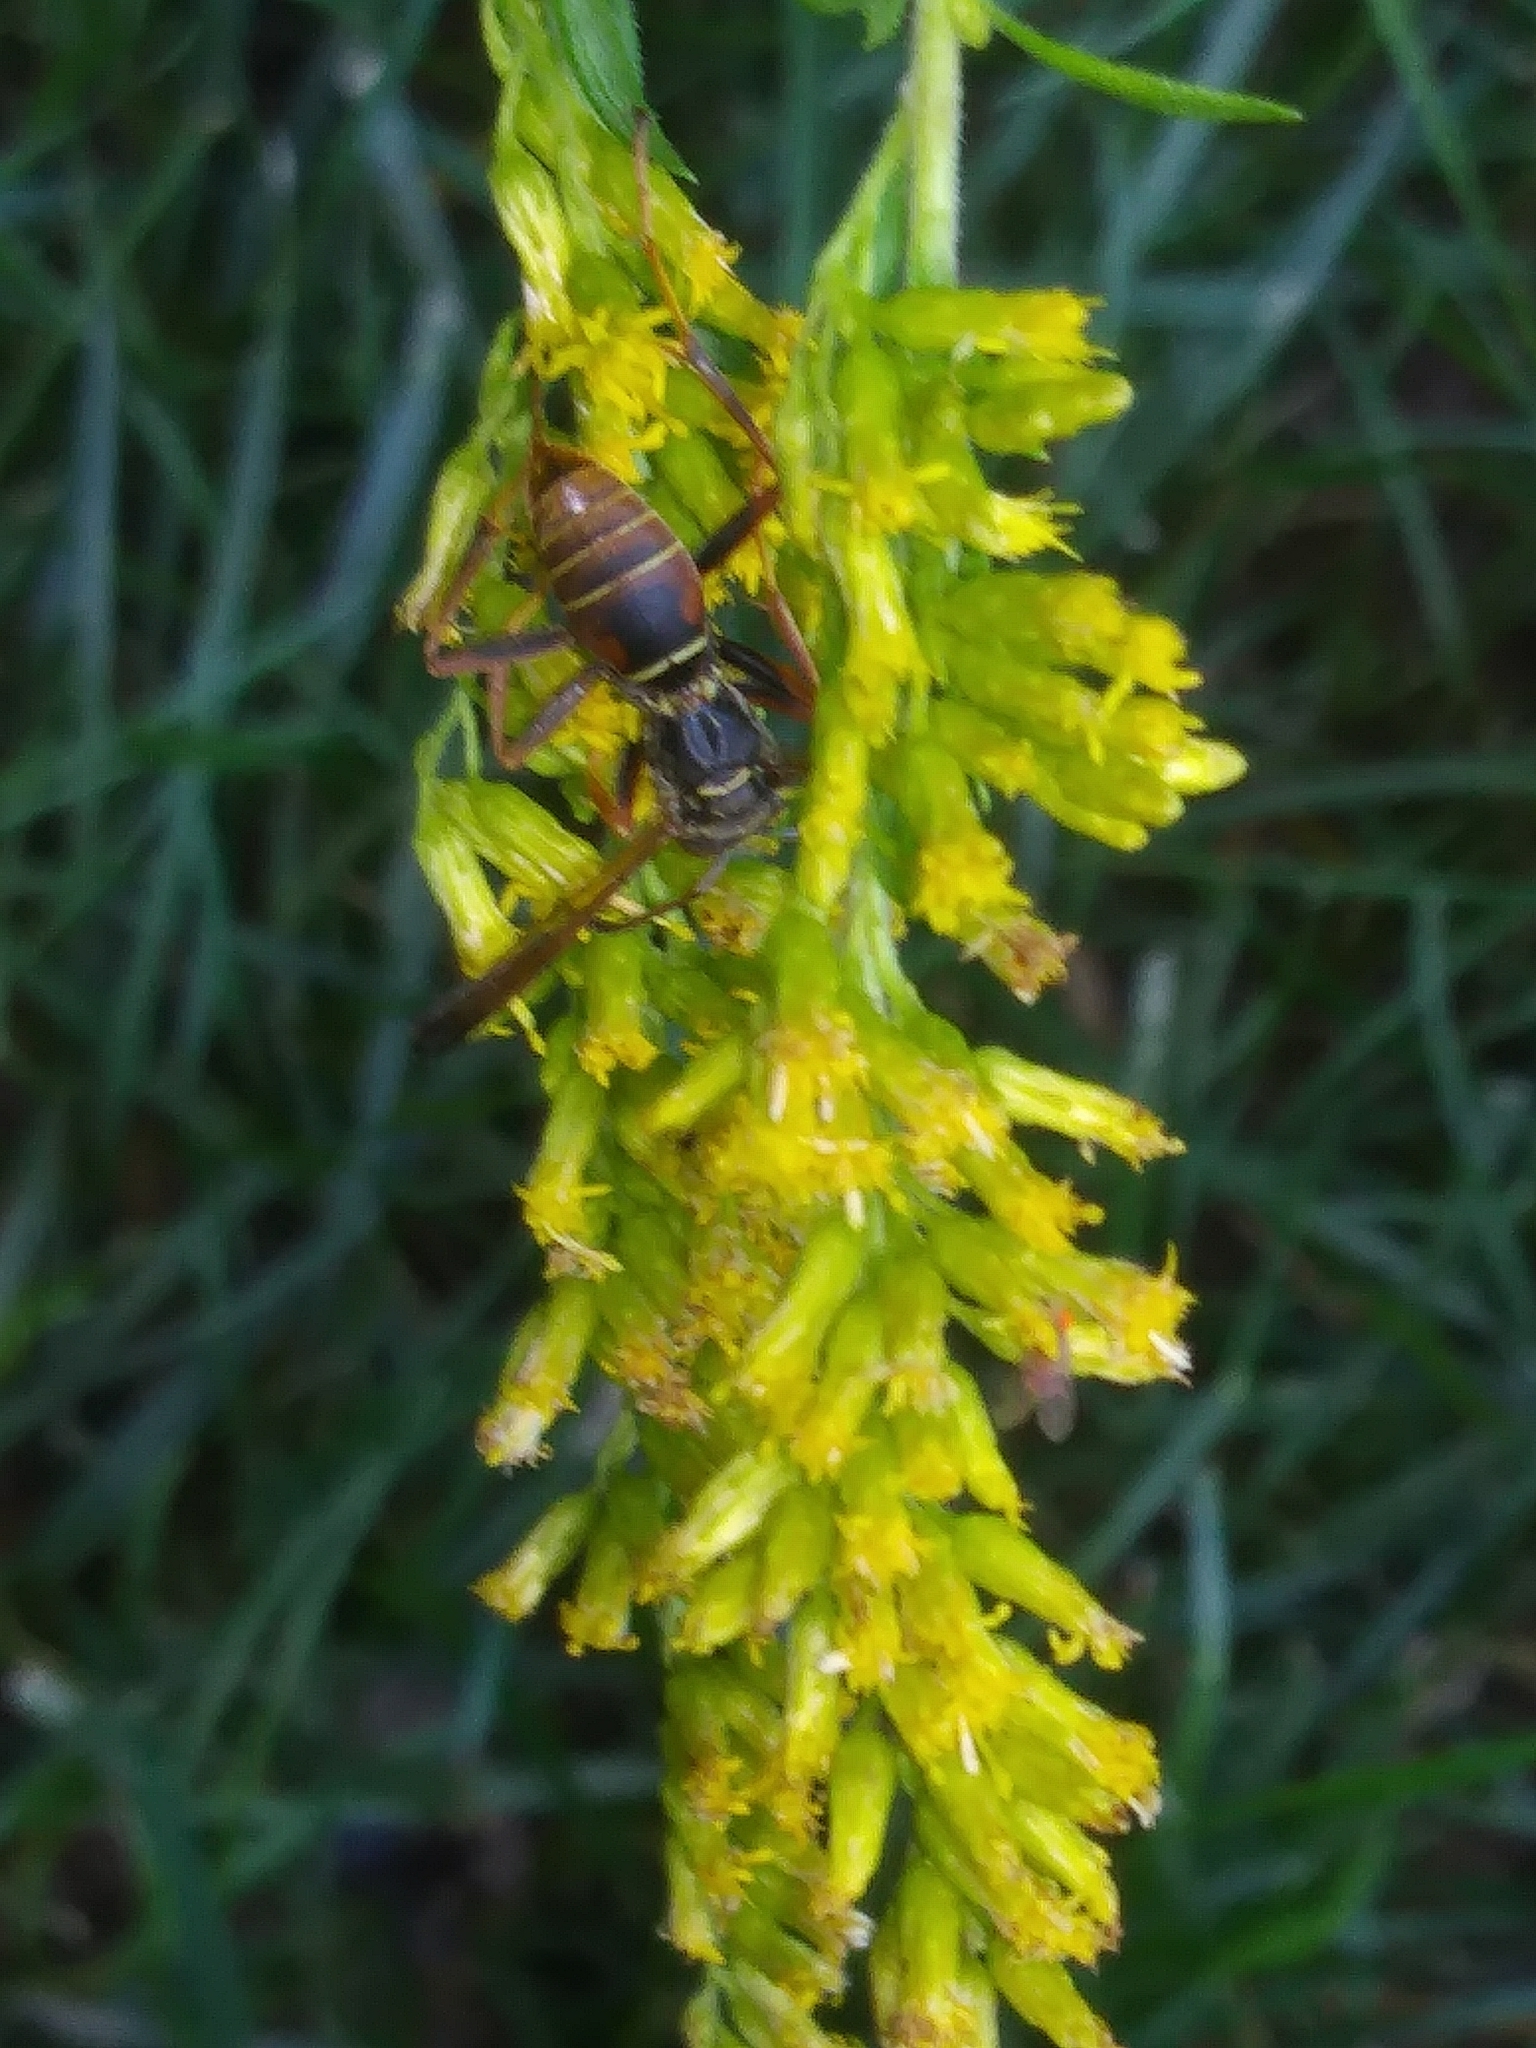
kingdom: Animalia
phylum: Arthropoda
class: Insecta
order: Hymenoptera
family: Eumenidae
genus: Polistes
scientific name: Polistes fuscatus
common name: Dark paper wasp
